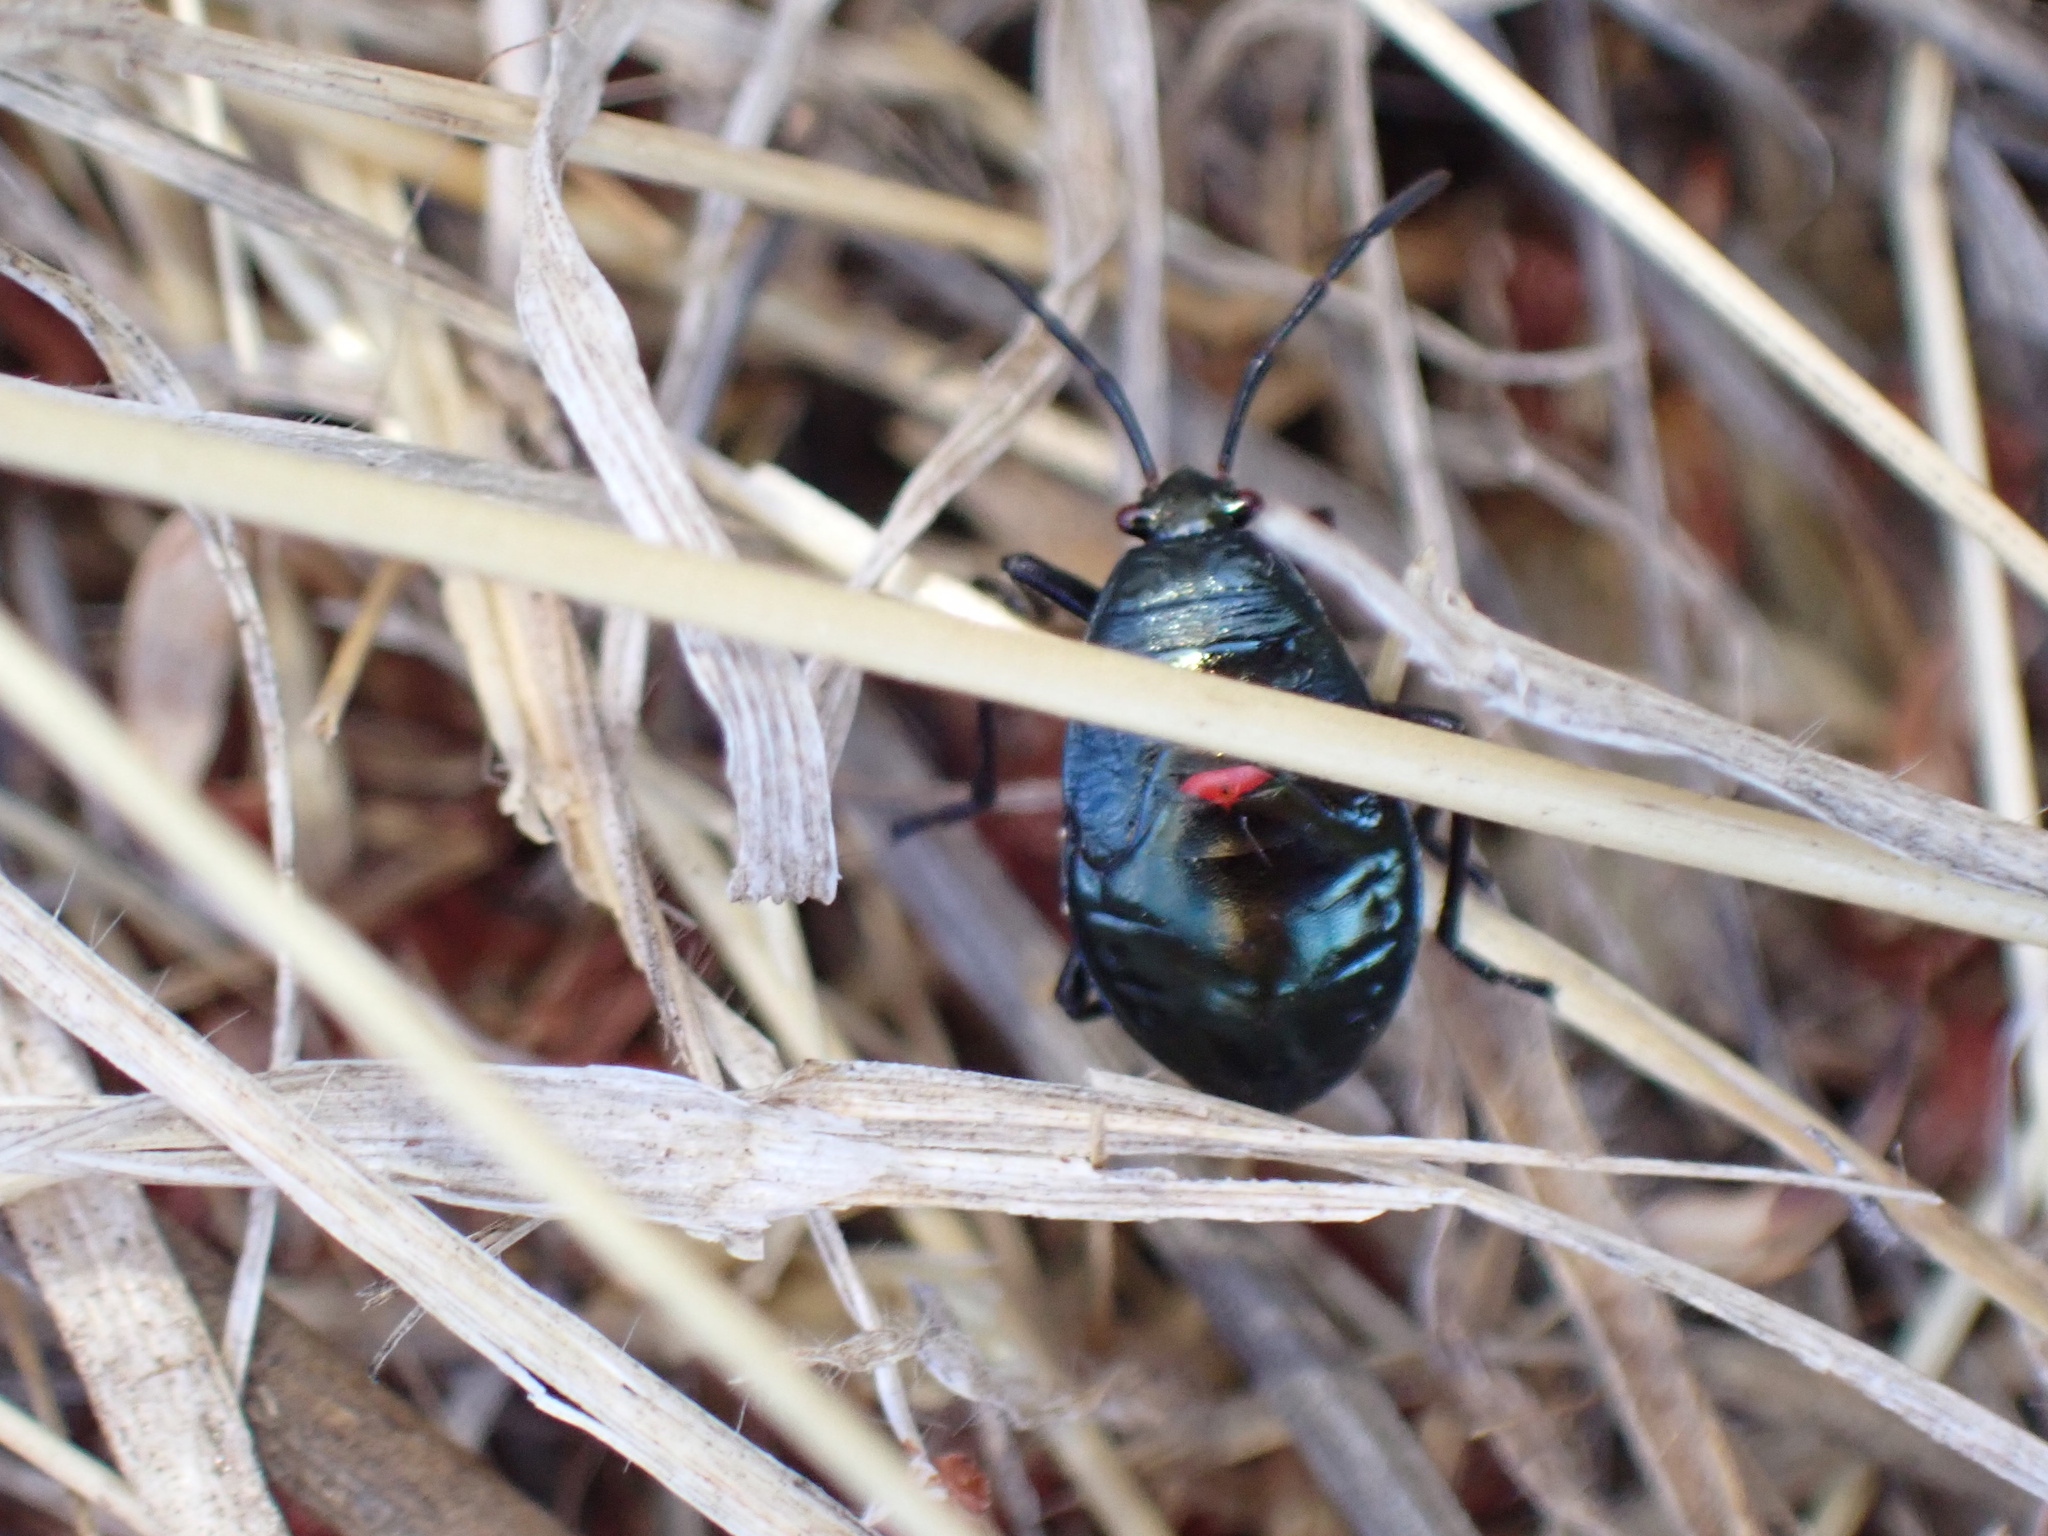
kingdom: Animalia
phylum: Arthropoda
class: Insecta
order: Hemiptera
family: Largidae
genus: Largus
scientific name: Largus californicus
